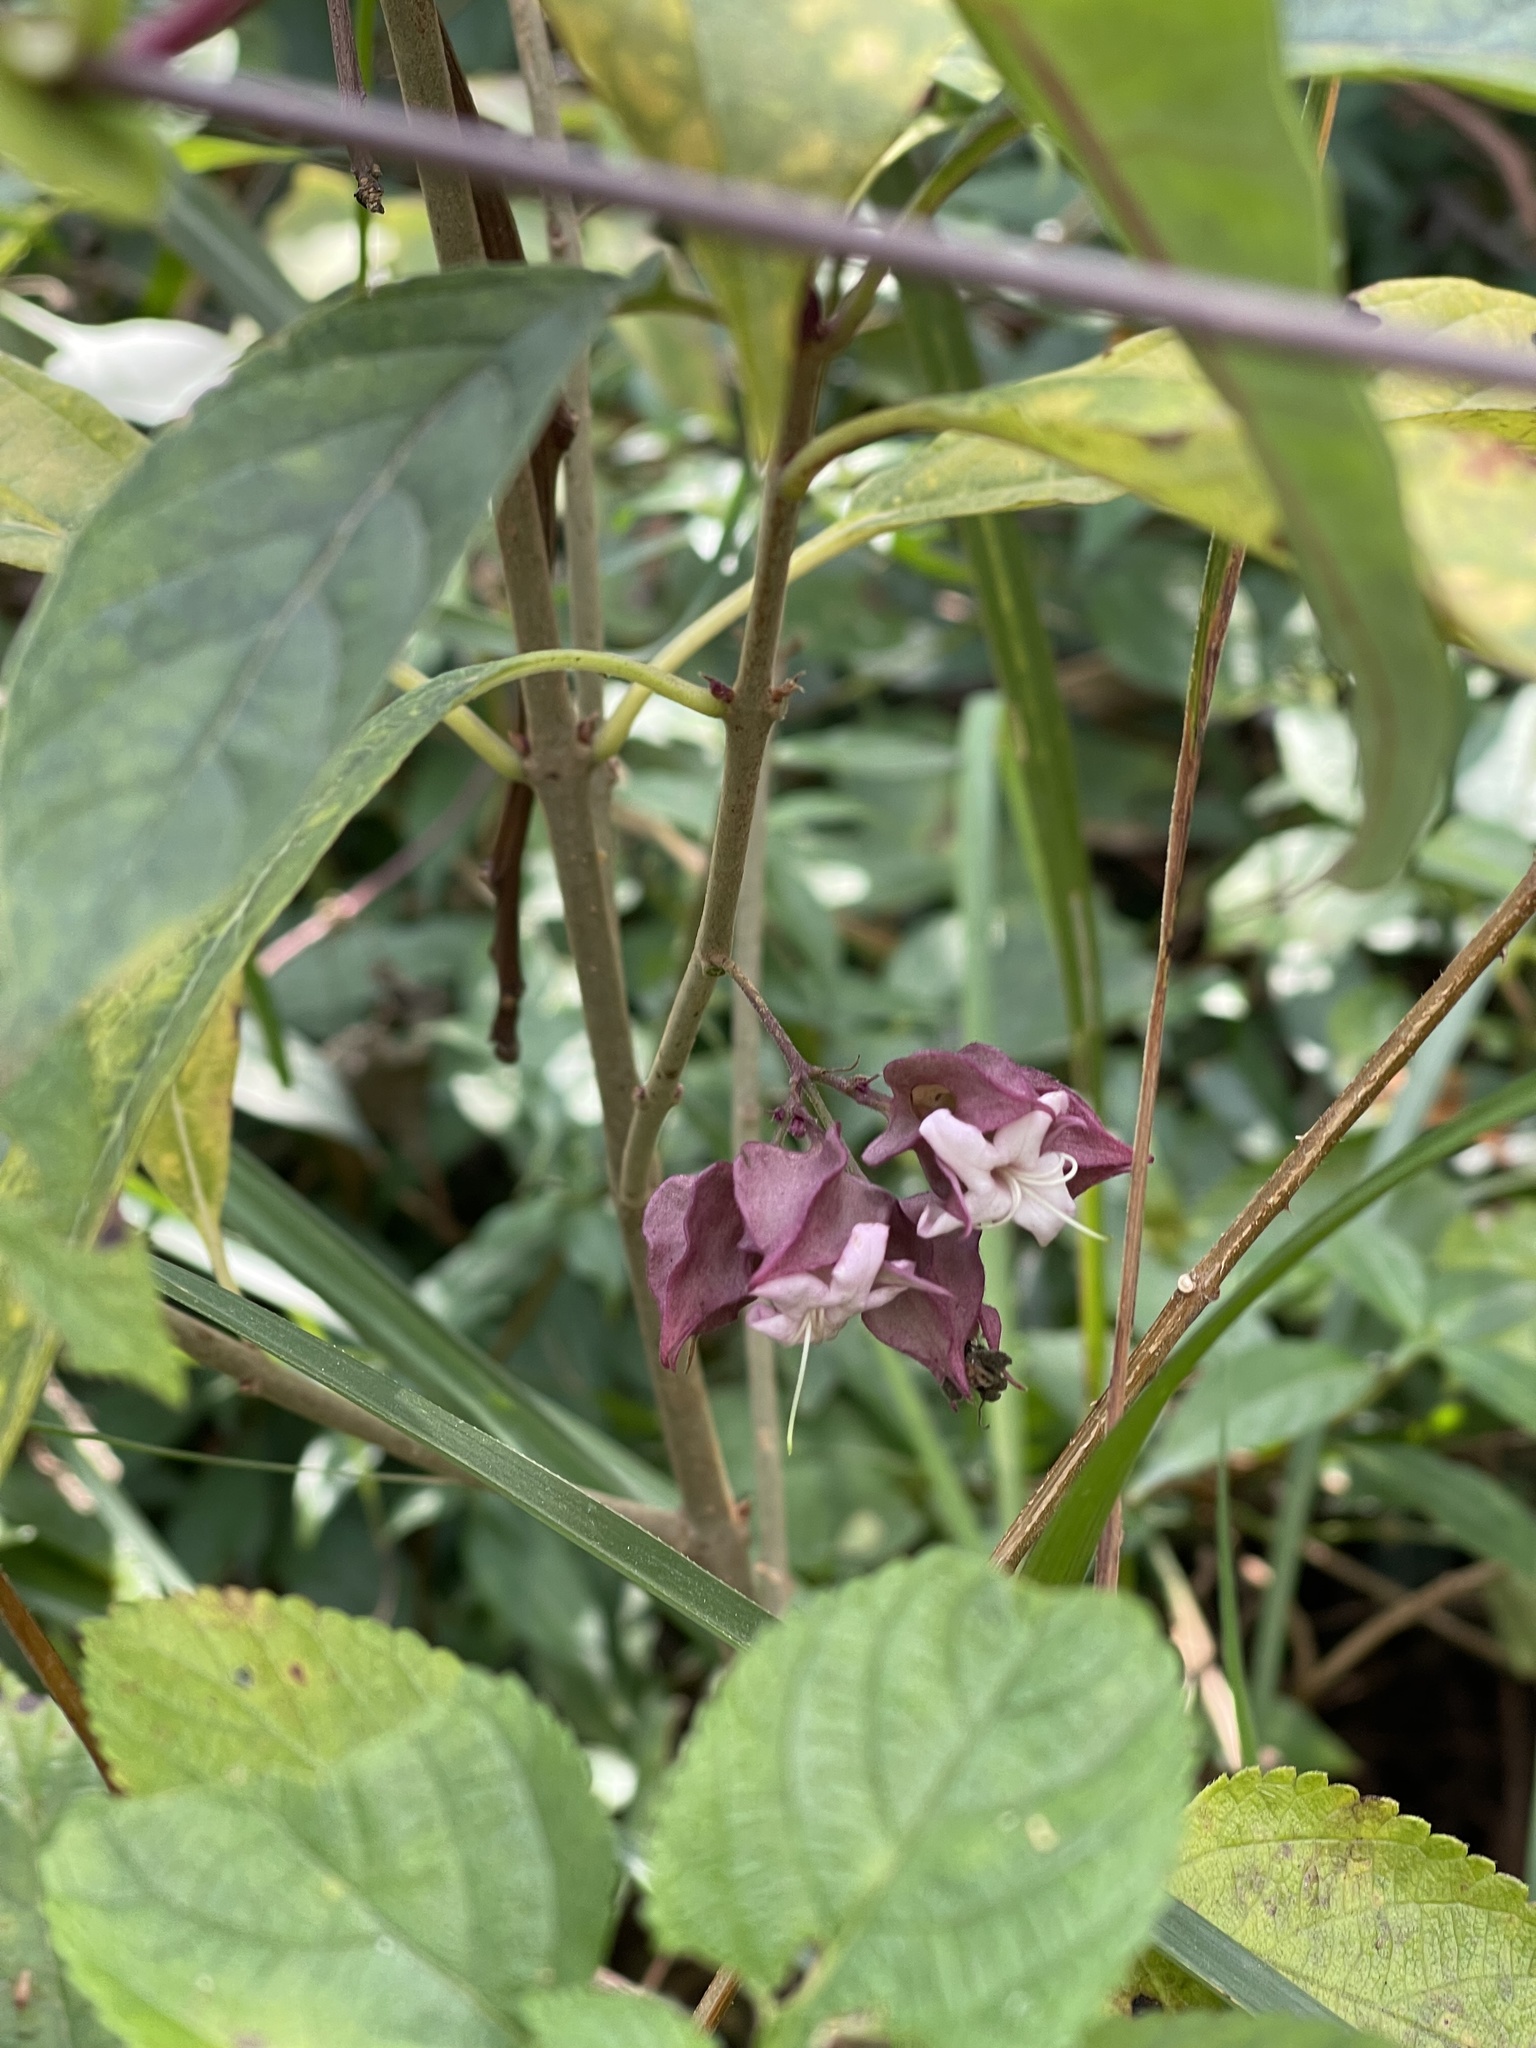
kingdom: Plantae
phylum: Tracheophyta
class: Magnoliopsida
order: Lamiales
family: Lamiaceae
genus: Clerodendrum
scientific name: Clerodendrum fortunatum
